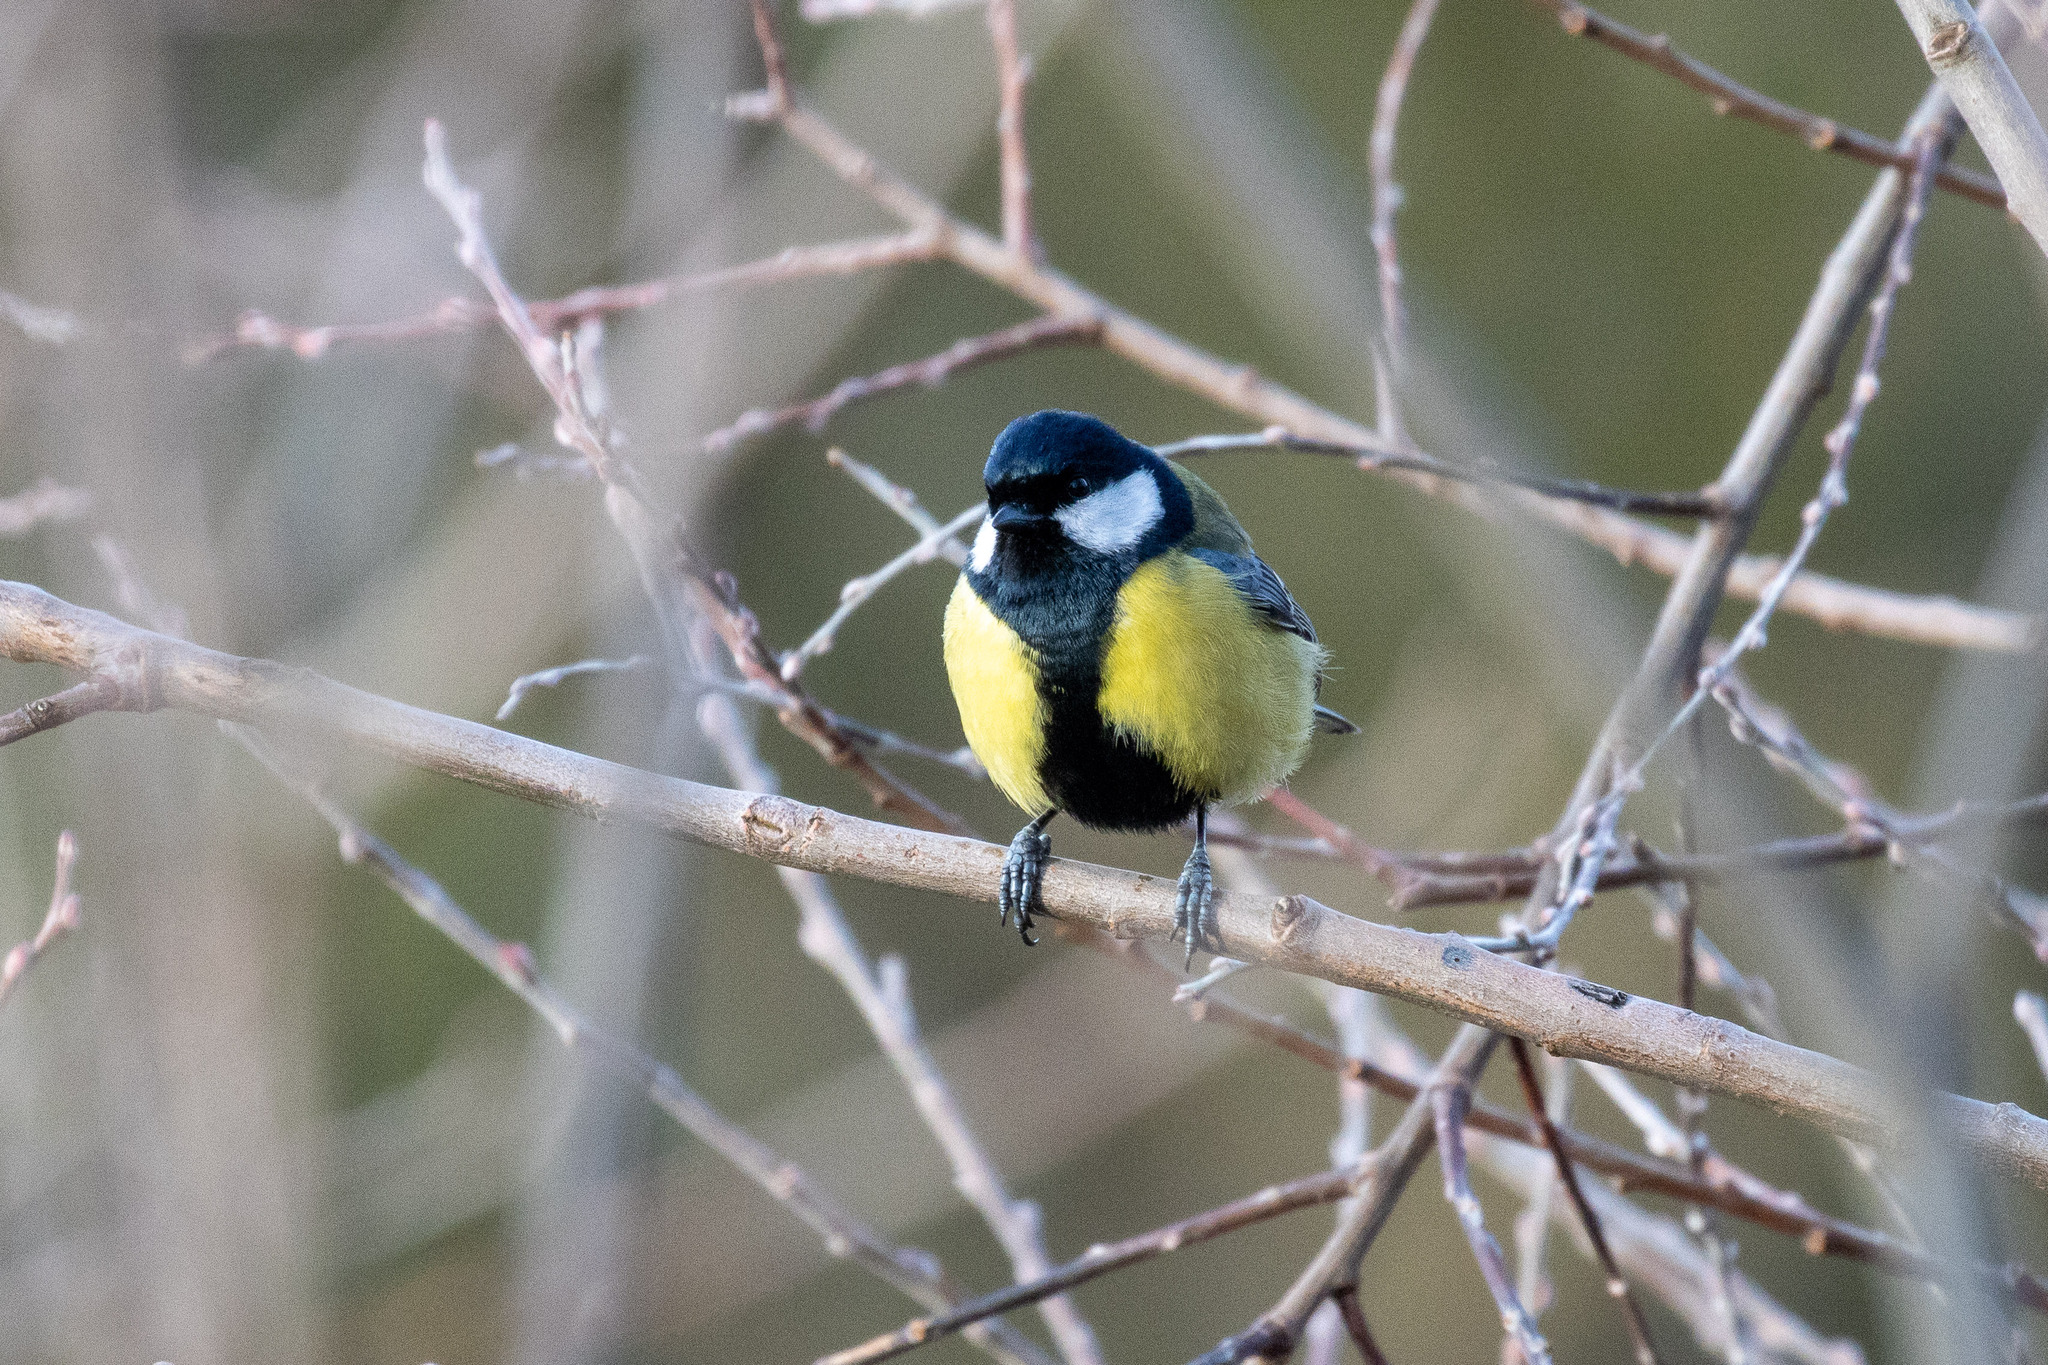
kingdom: Animalia
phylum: Chordata
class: Aves
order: Passeriformes
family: Paridae
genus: Parus
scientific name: Parus major
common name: Great tit
